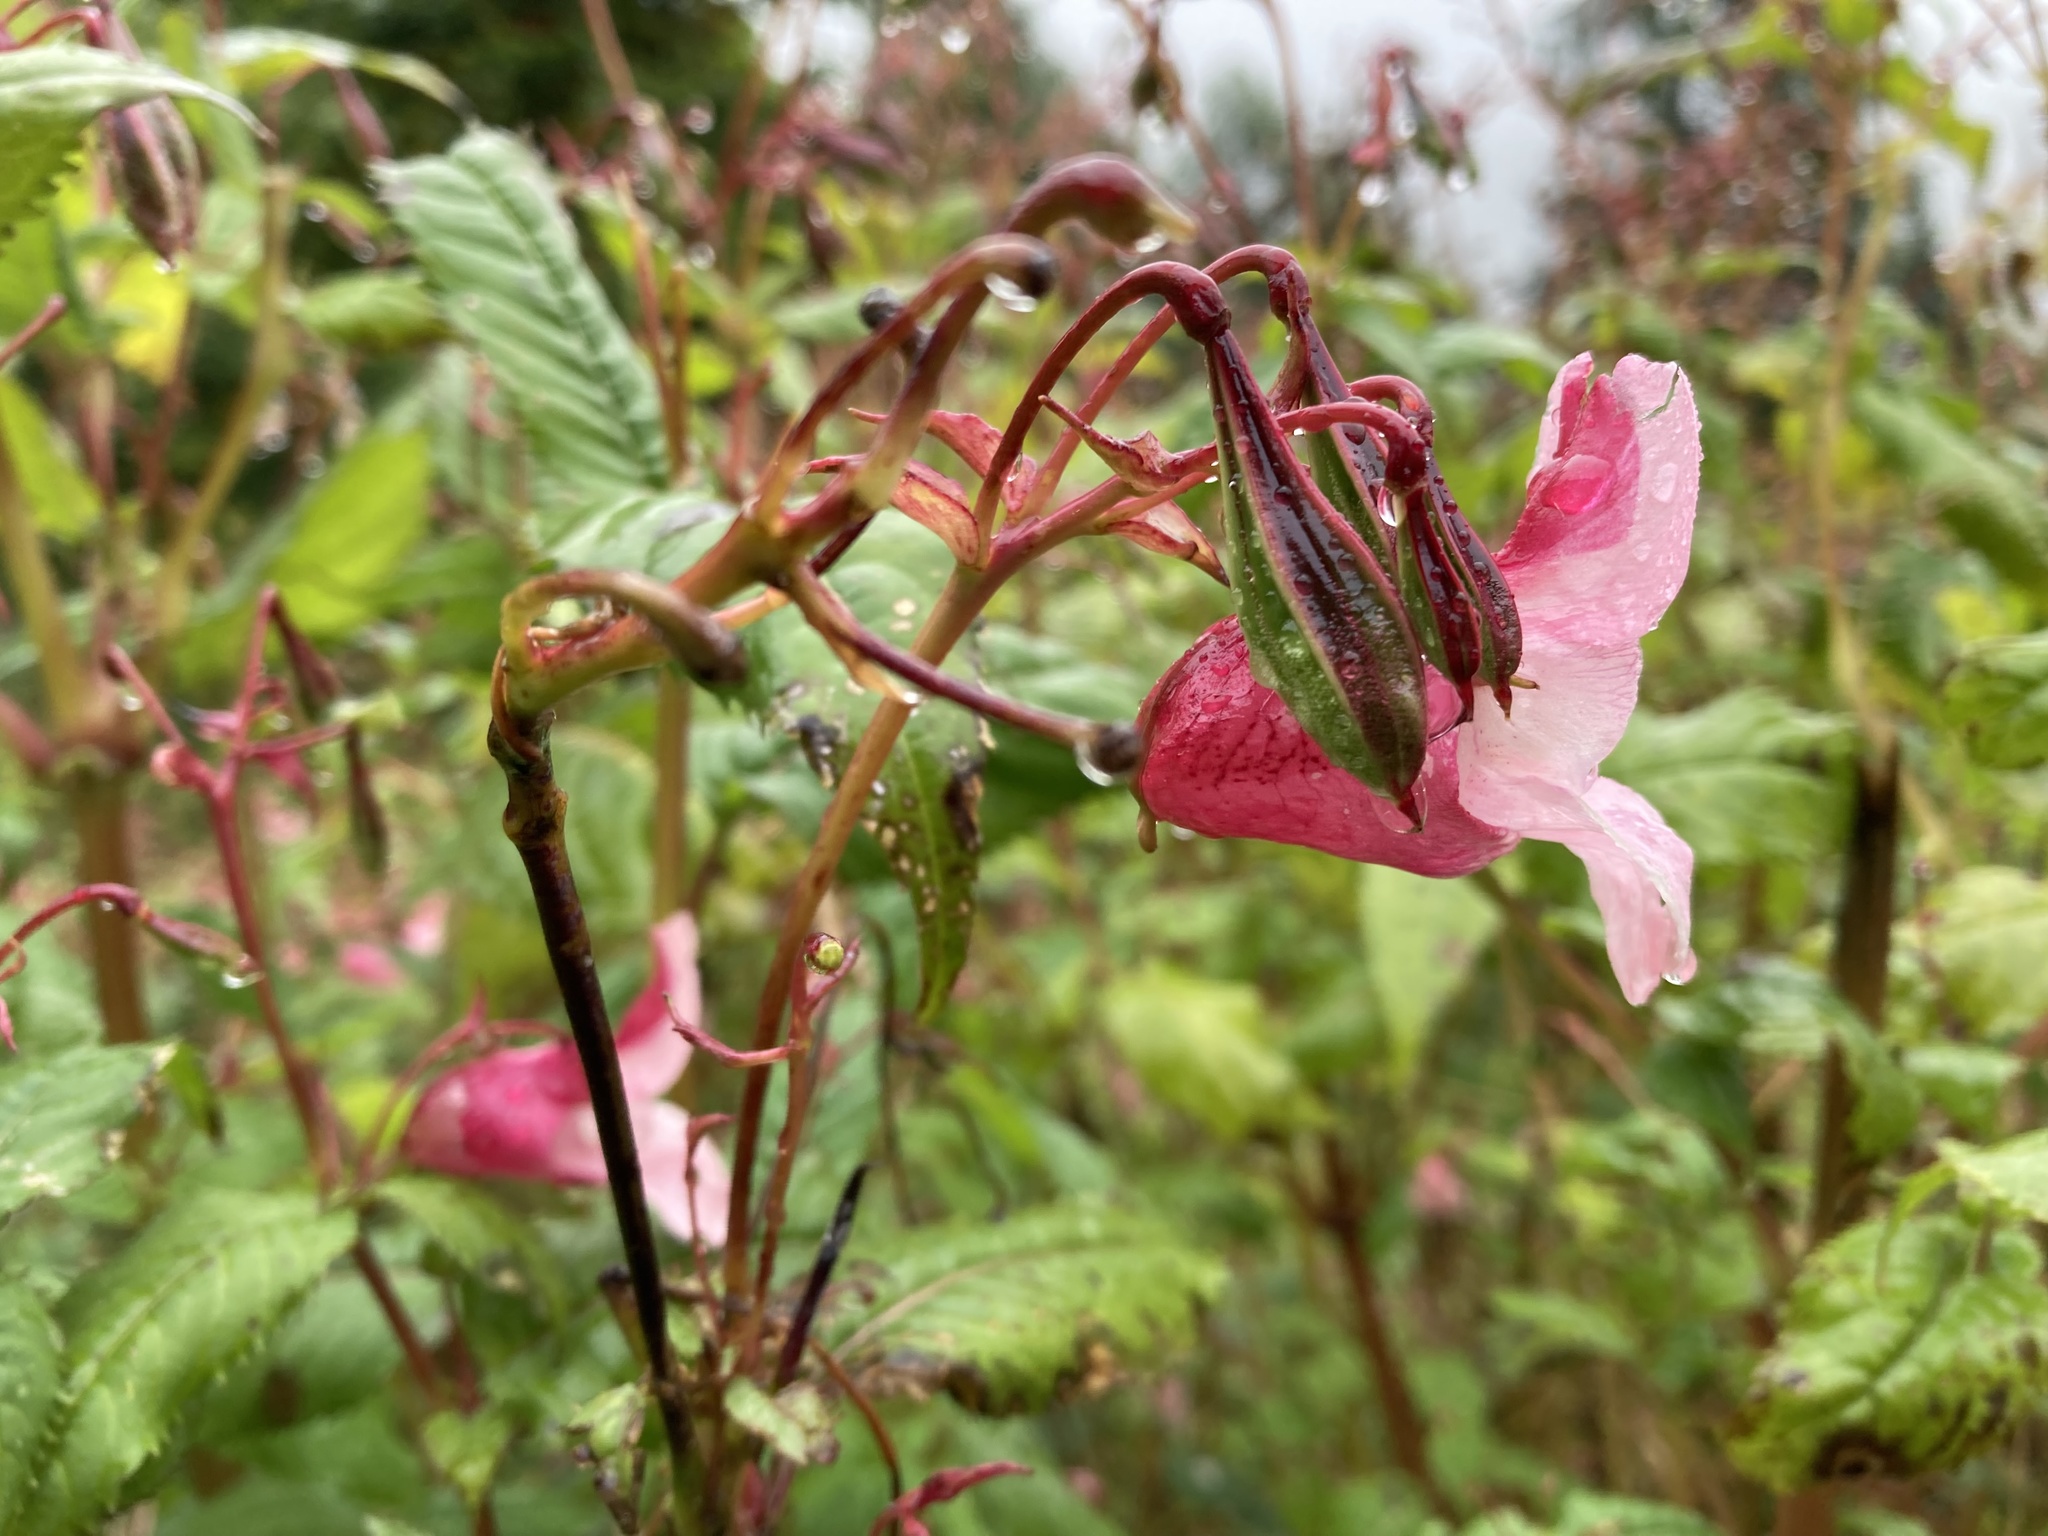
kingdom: Plantae
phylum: Tracheophyta
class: Magnoliopsida
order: Ericales
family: Balsaminaceae
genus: Impatiens
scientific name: Impatiens glandulifera
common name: Himalayan balsam
